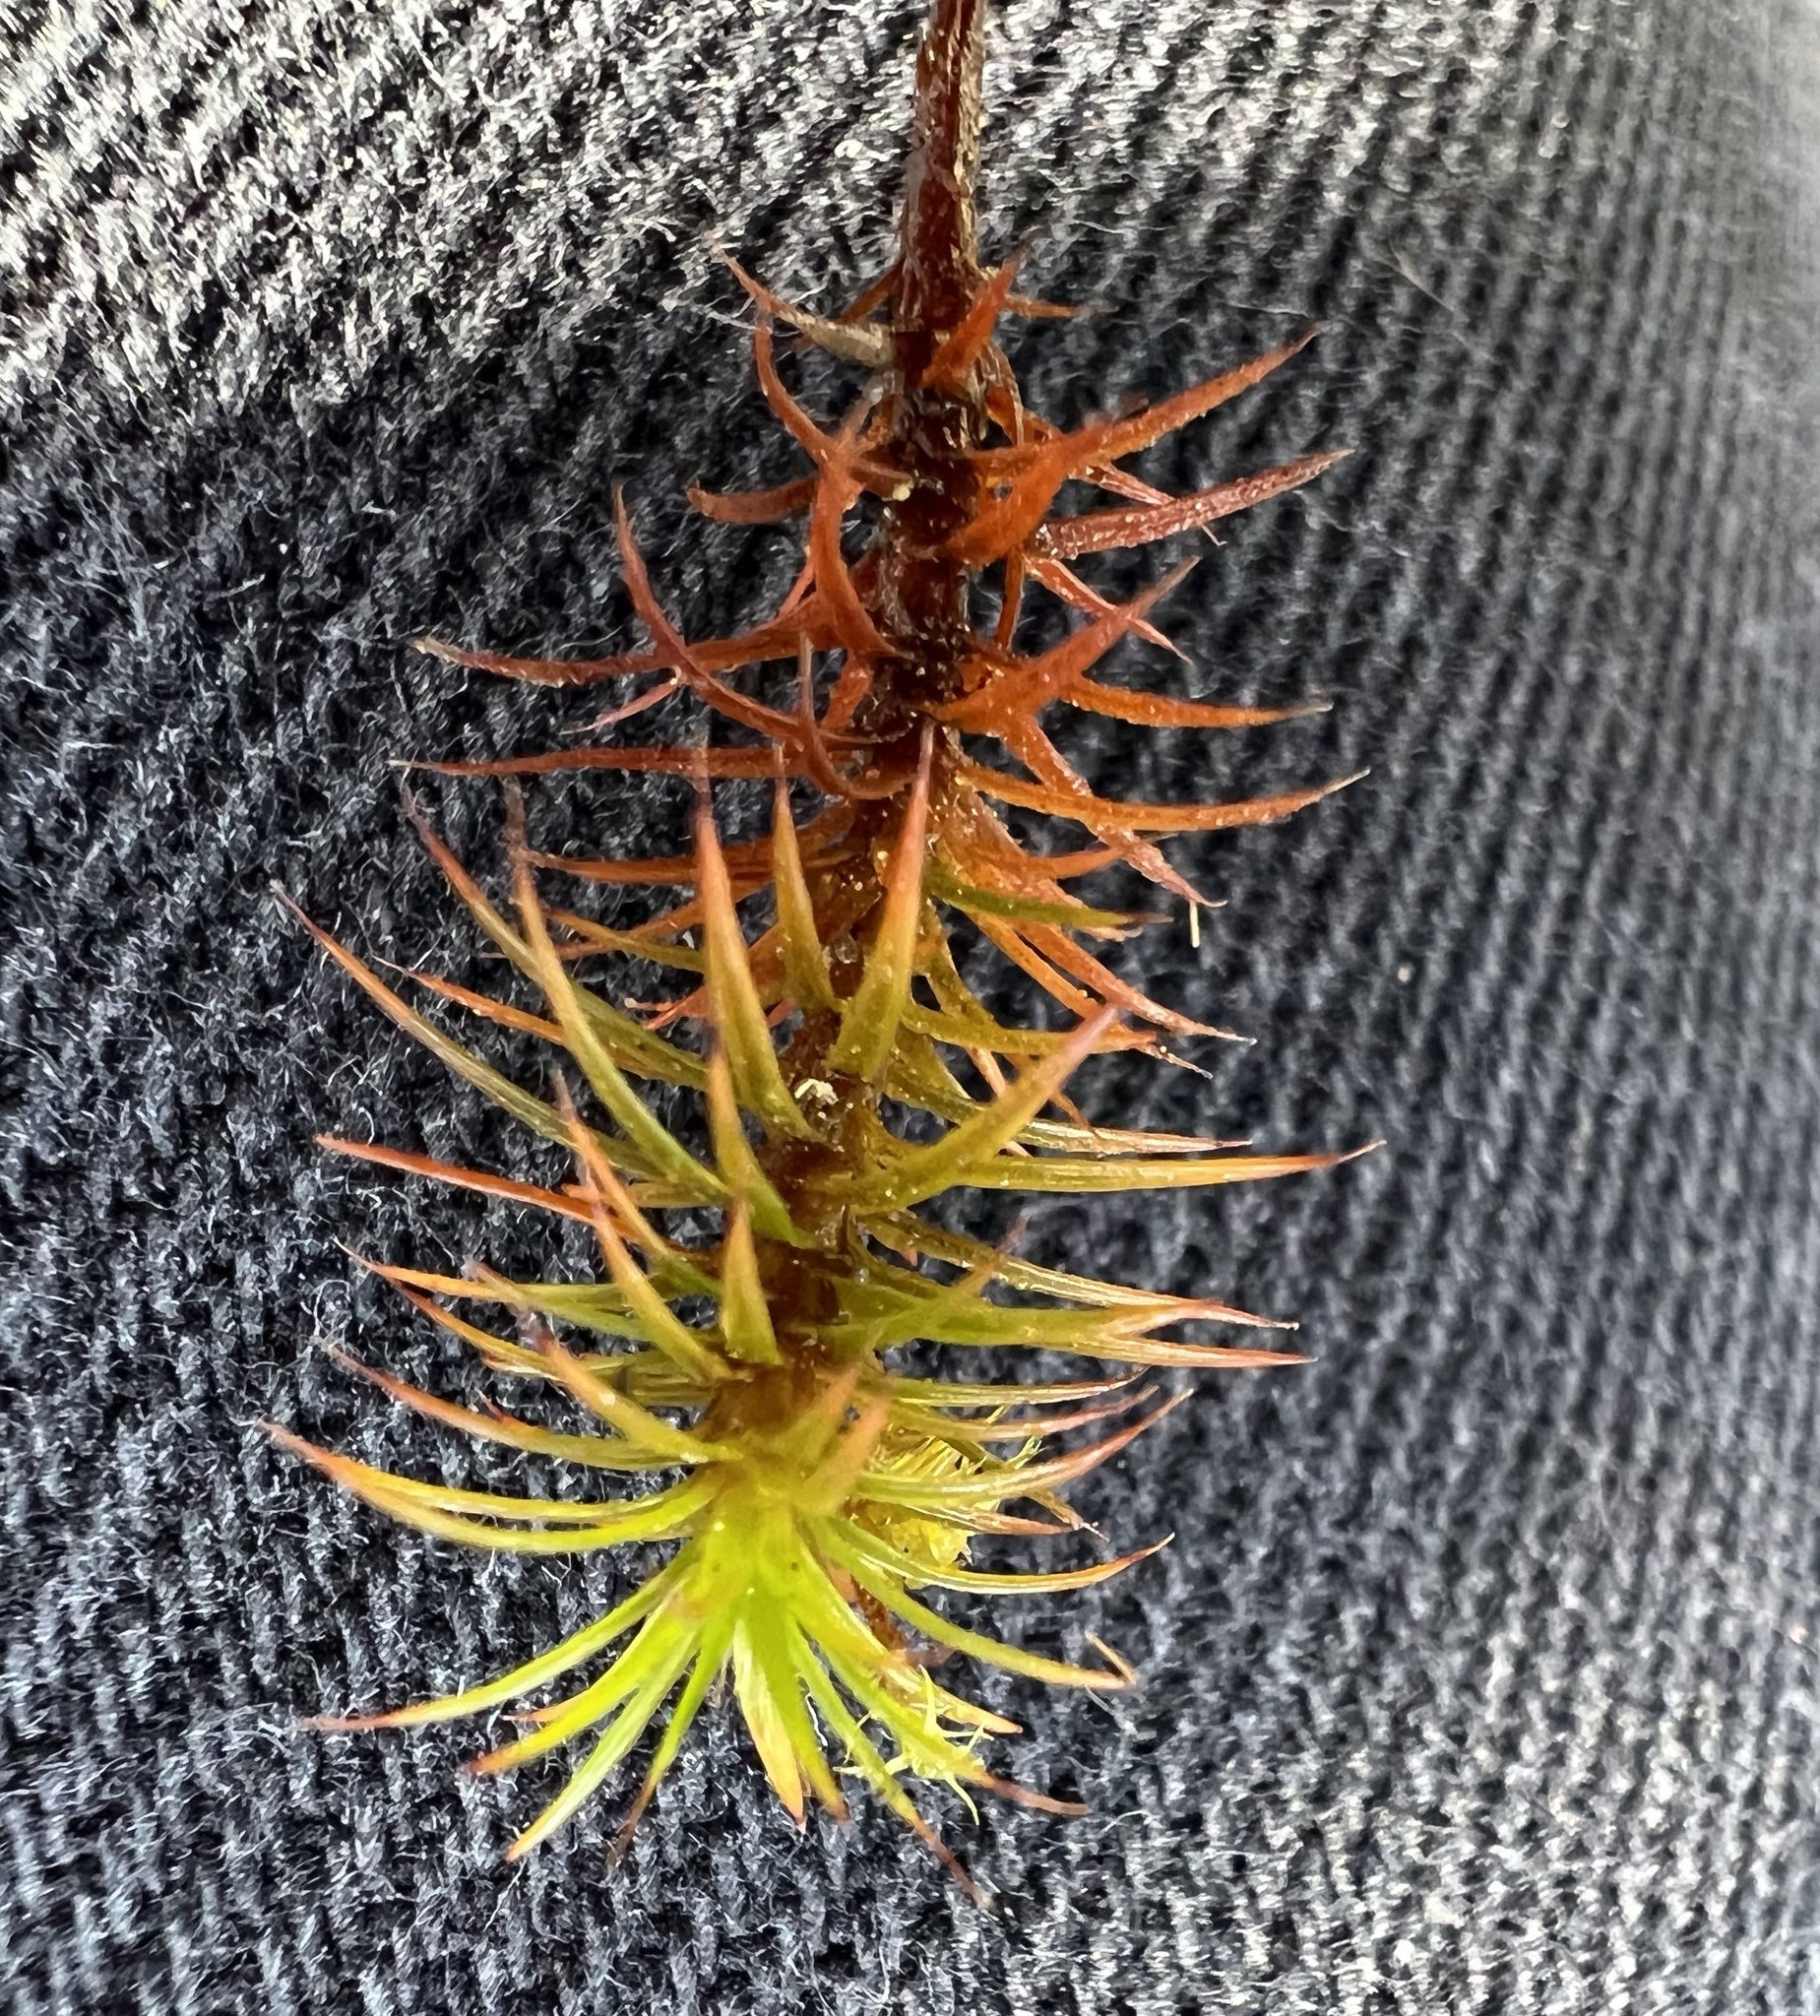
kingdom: Plantae
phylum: Bryophyta
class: Polytrichopsida
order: Polytrichales
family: Polytrichaceae
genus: Polytrichum
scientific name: Polytrichum juniperinum
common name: Juniper haircap moss
